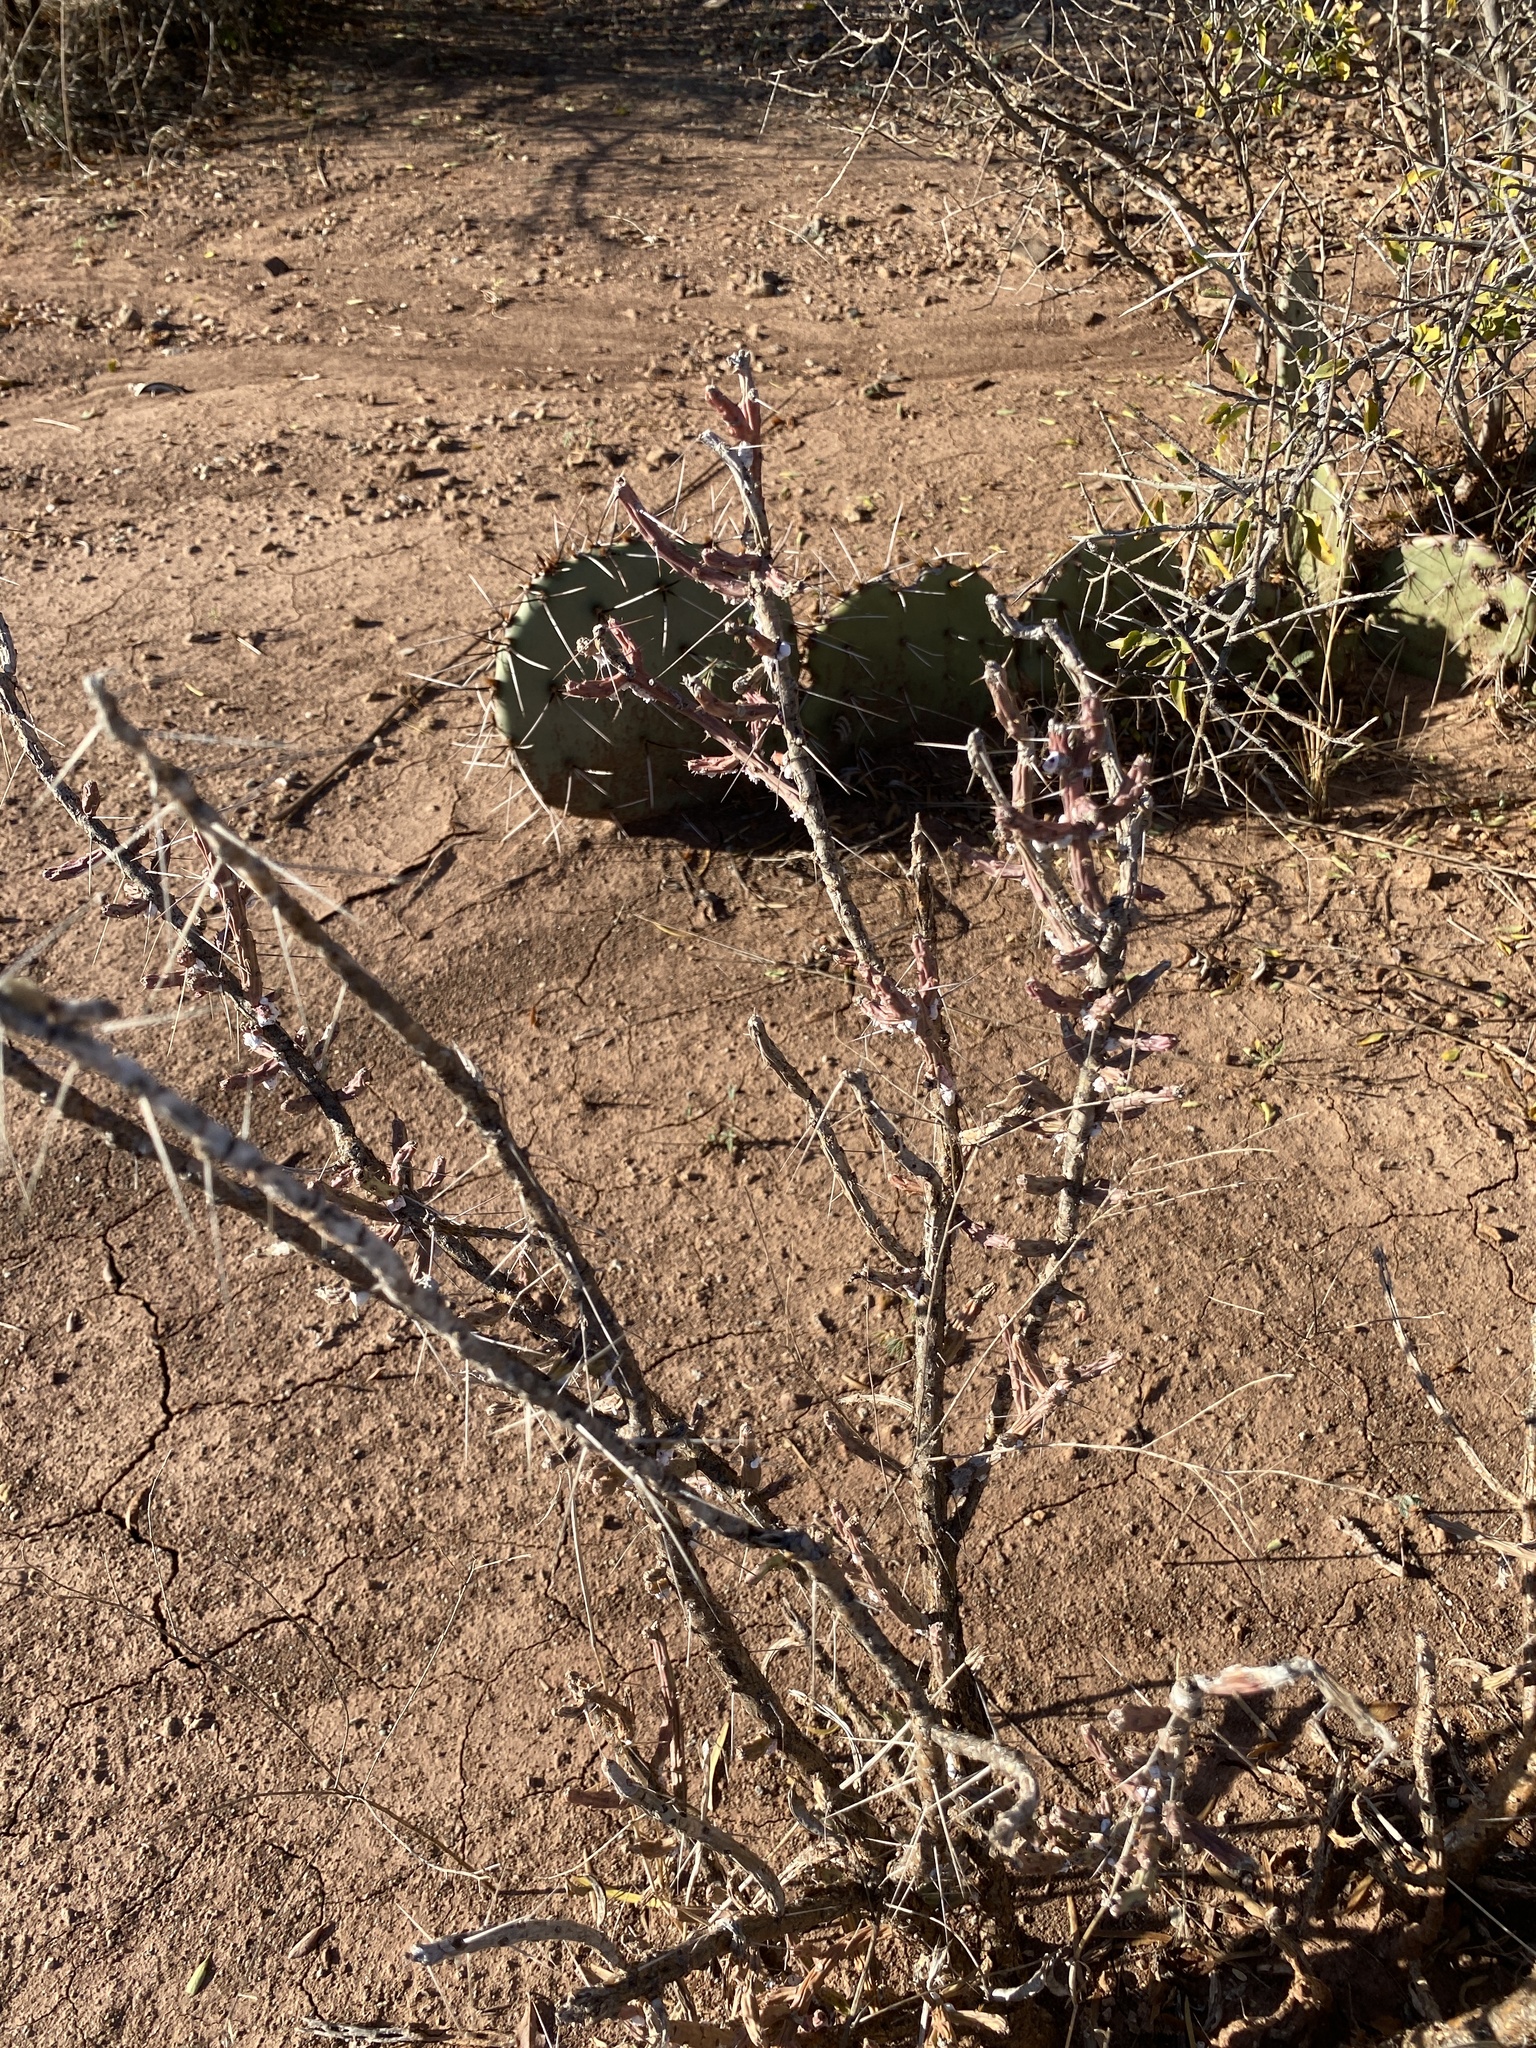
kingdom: Plantae
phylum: Tracheophyta
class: Magnoliopsida
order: Caryophyllales
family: Cactaceae
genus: Cylindropuntia
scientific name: Cylindropuntia leptocaulis
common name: Christmas cactus
